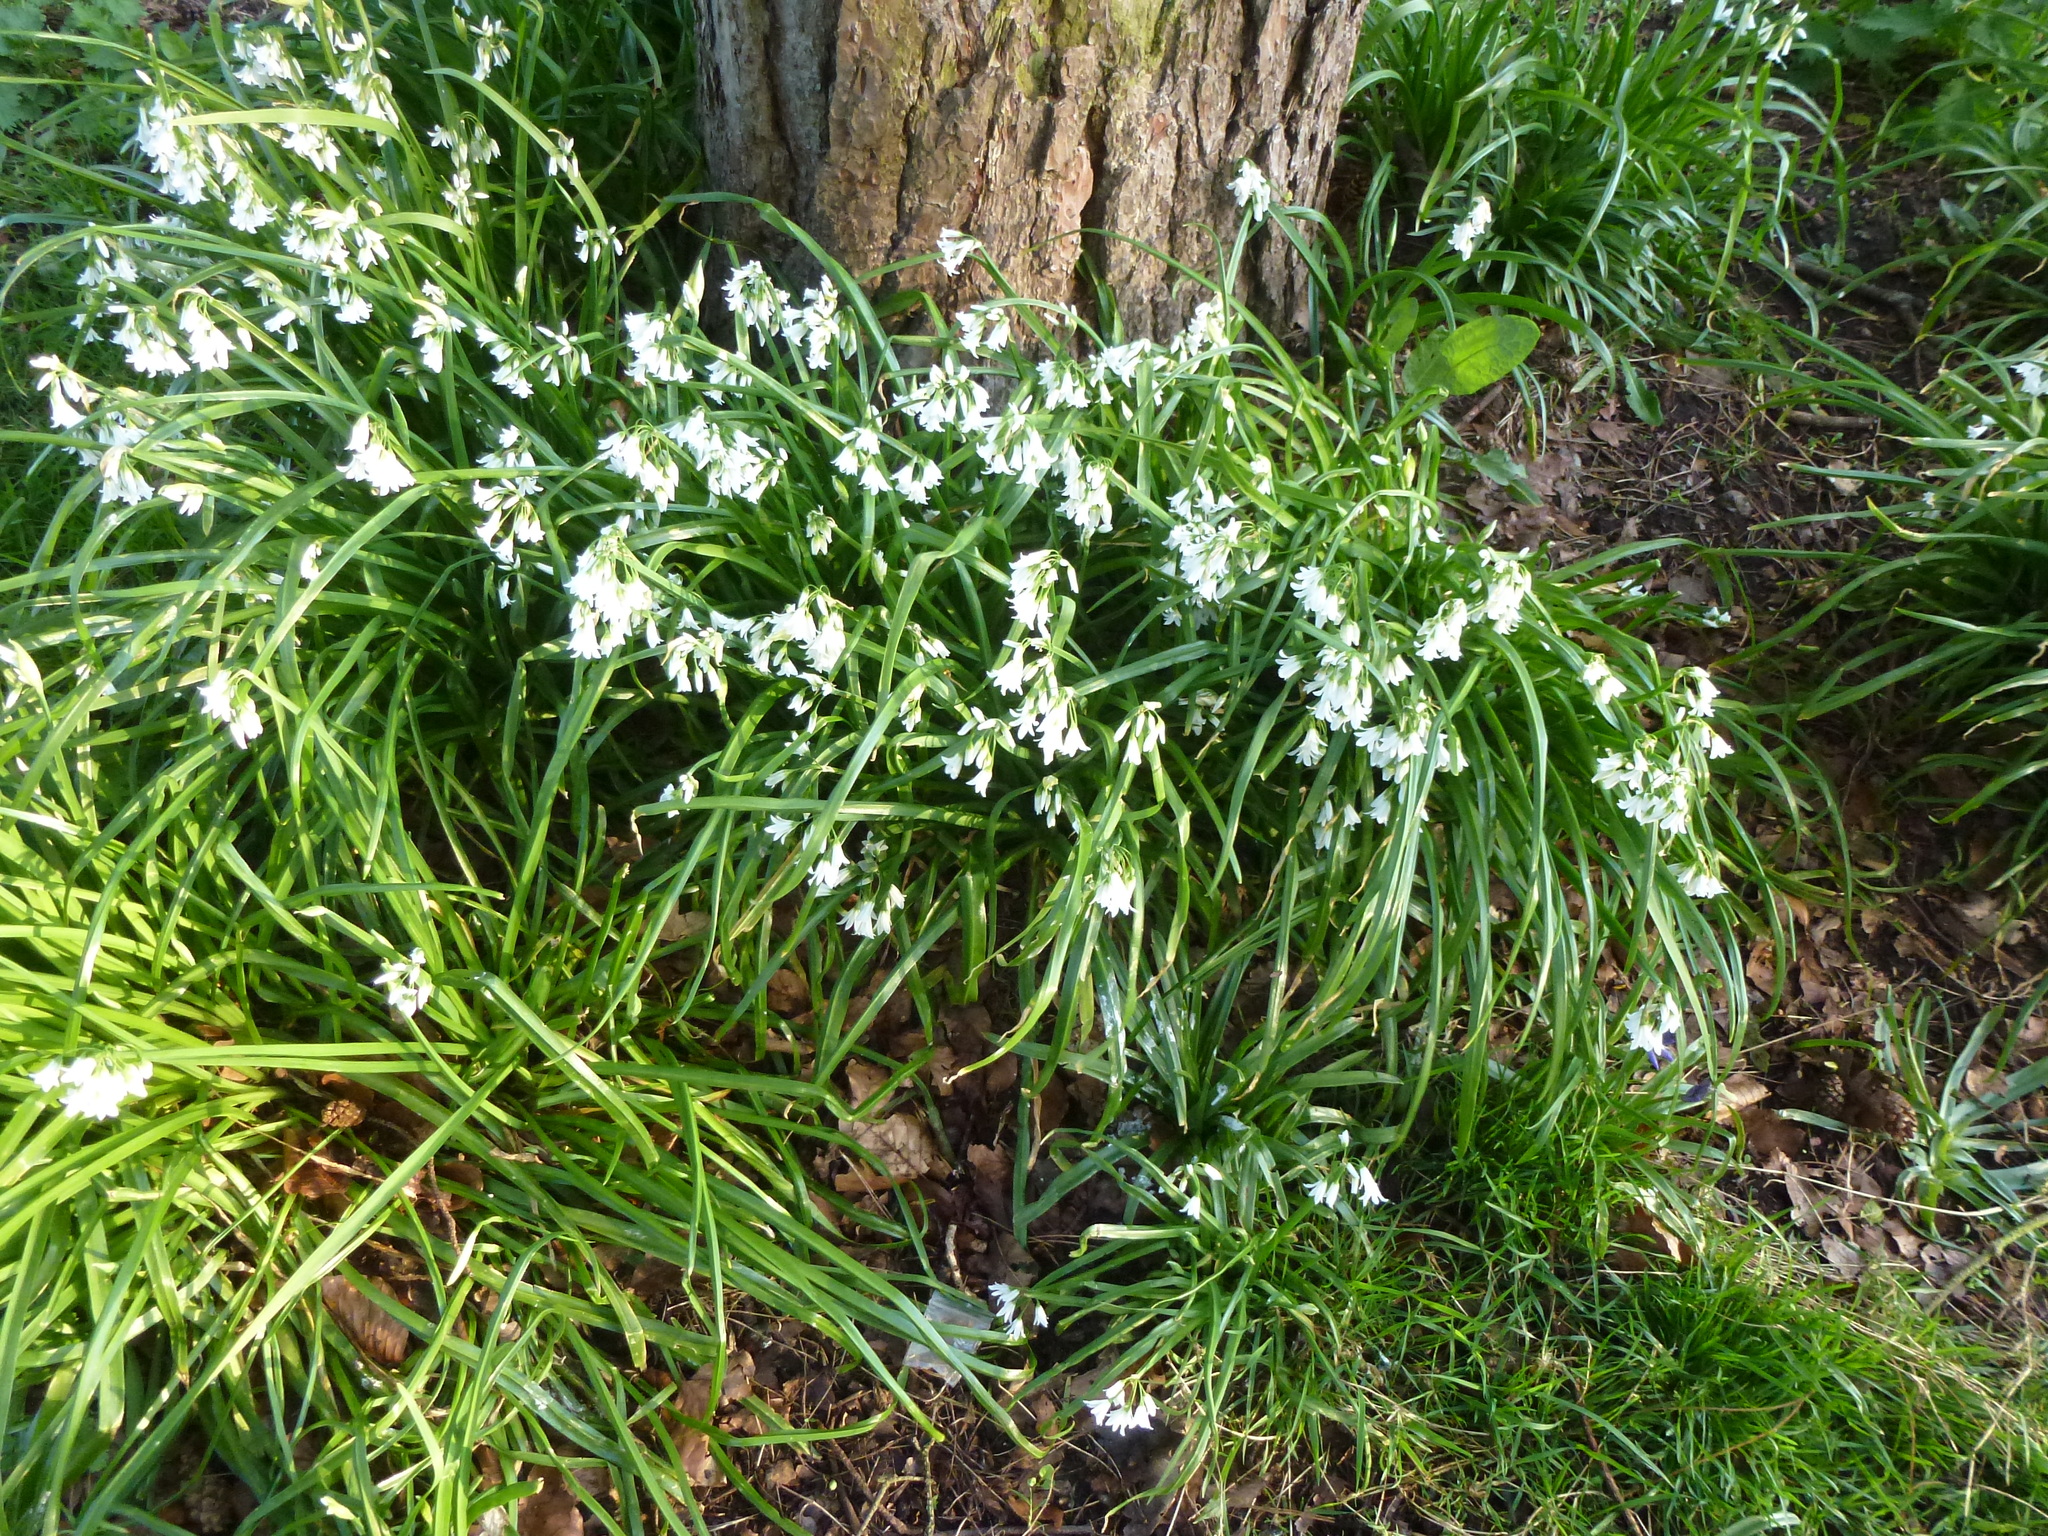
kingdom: Plantae
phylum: Tracheophyta
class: Liliopsida
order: Asparagales
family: Amaryllidaceae
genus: Allium
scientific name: Allium triquetrum
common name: Three-cornered garlic
